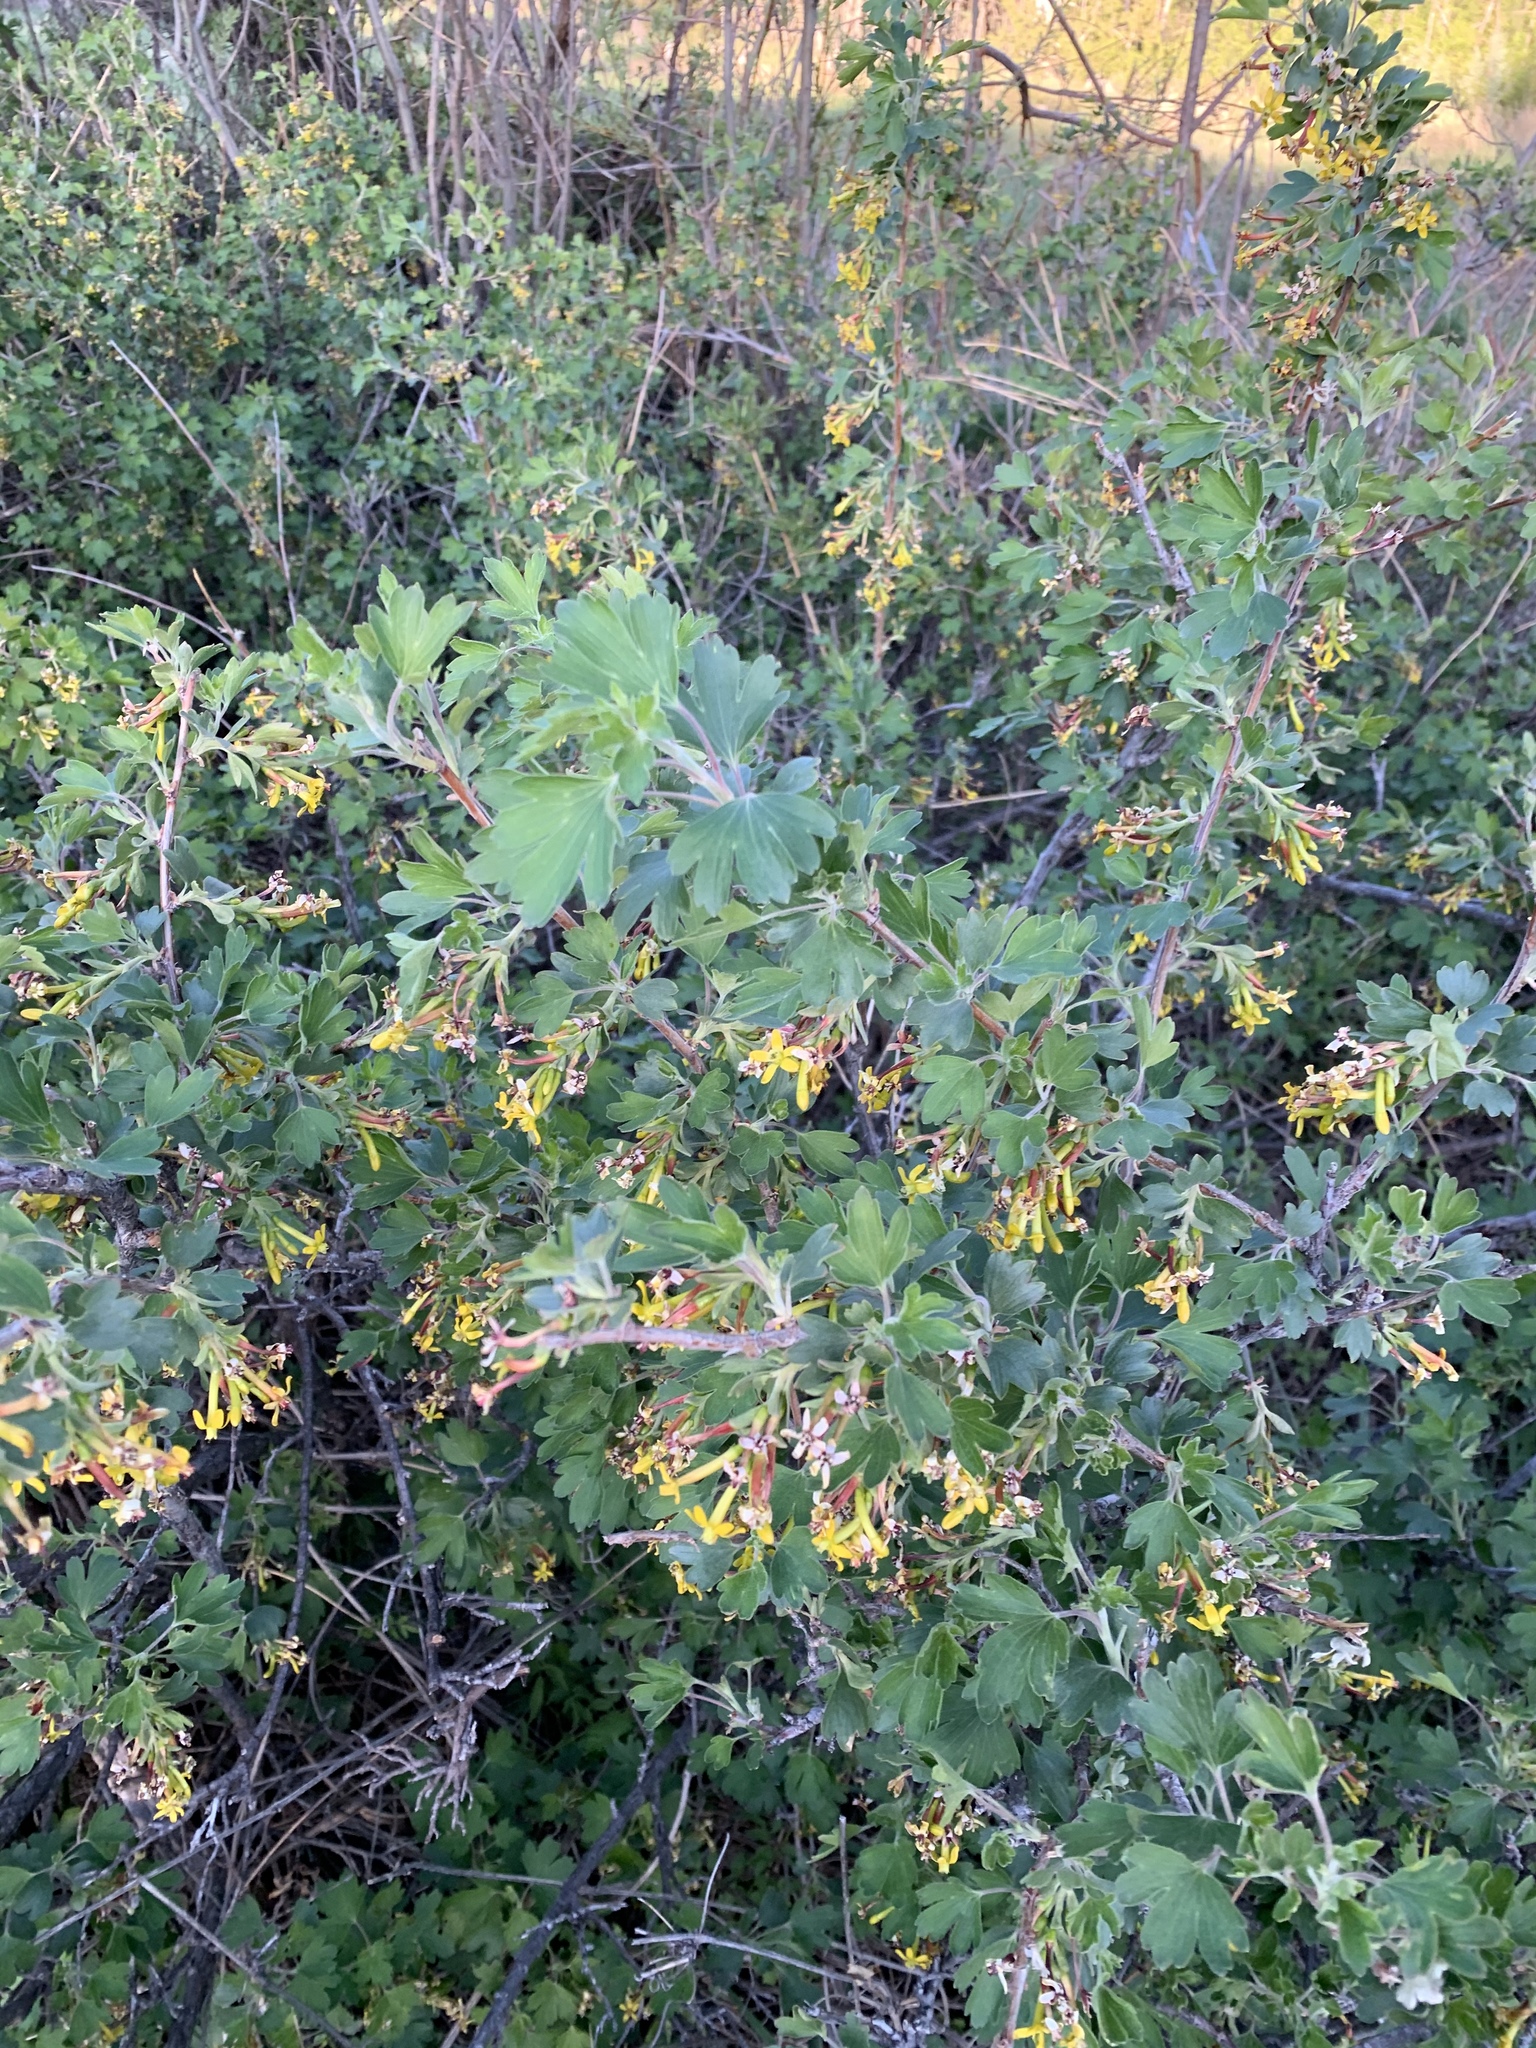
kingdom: Plantae
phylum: Tracheophyta
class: Magnoliopsida
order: Saxifragales
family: Grossulariaceae
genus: Ribes
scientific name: Ribes aureum
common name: Golden currant
